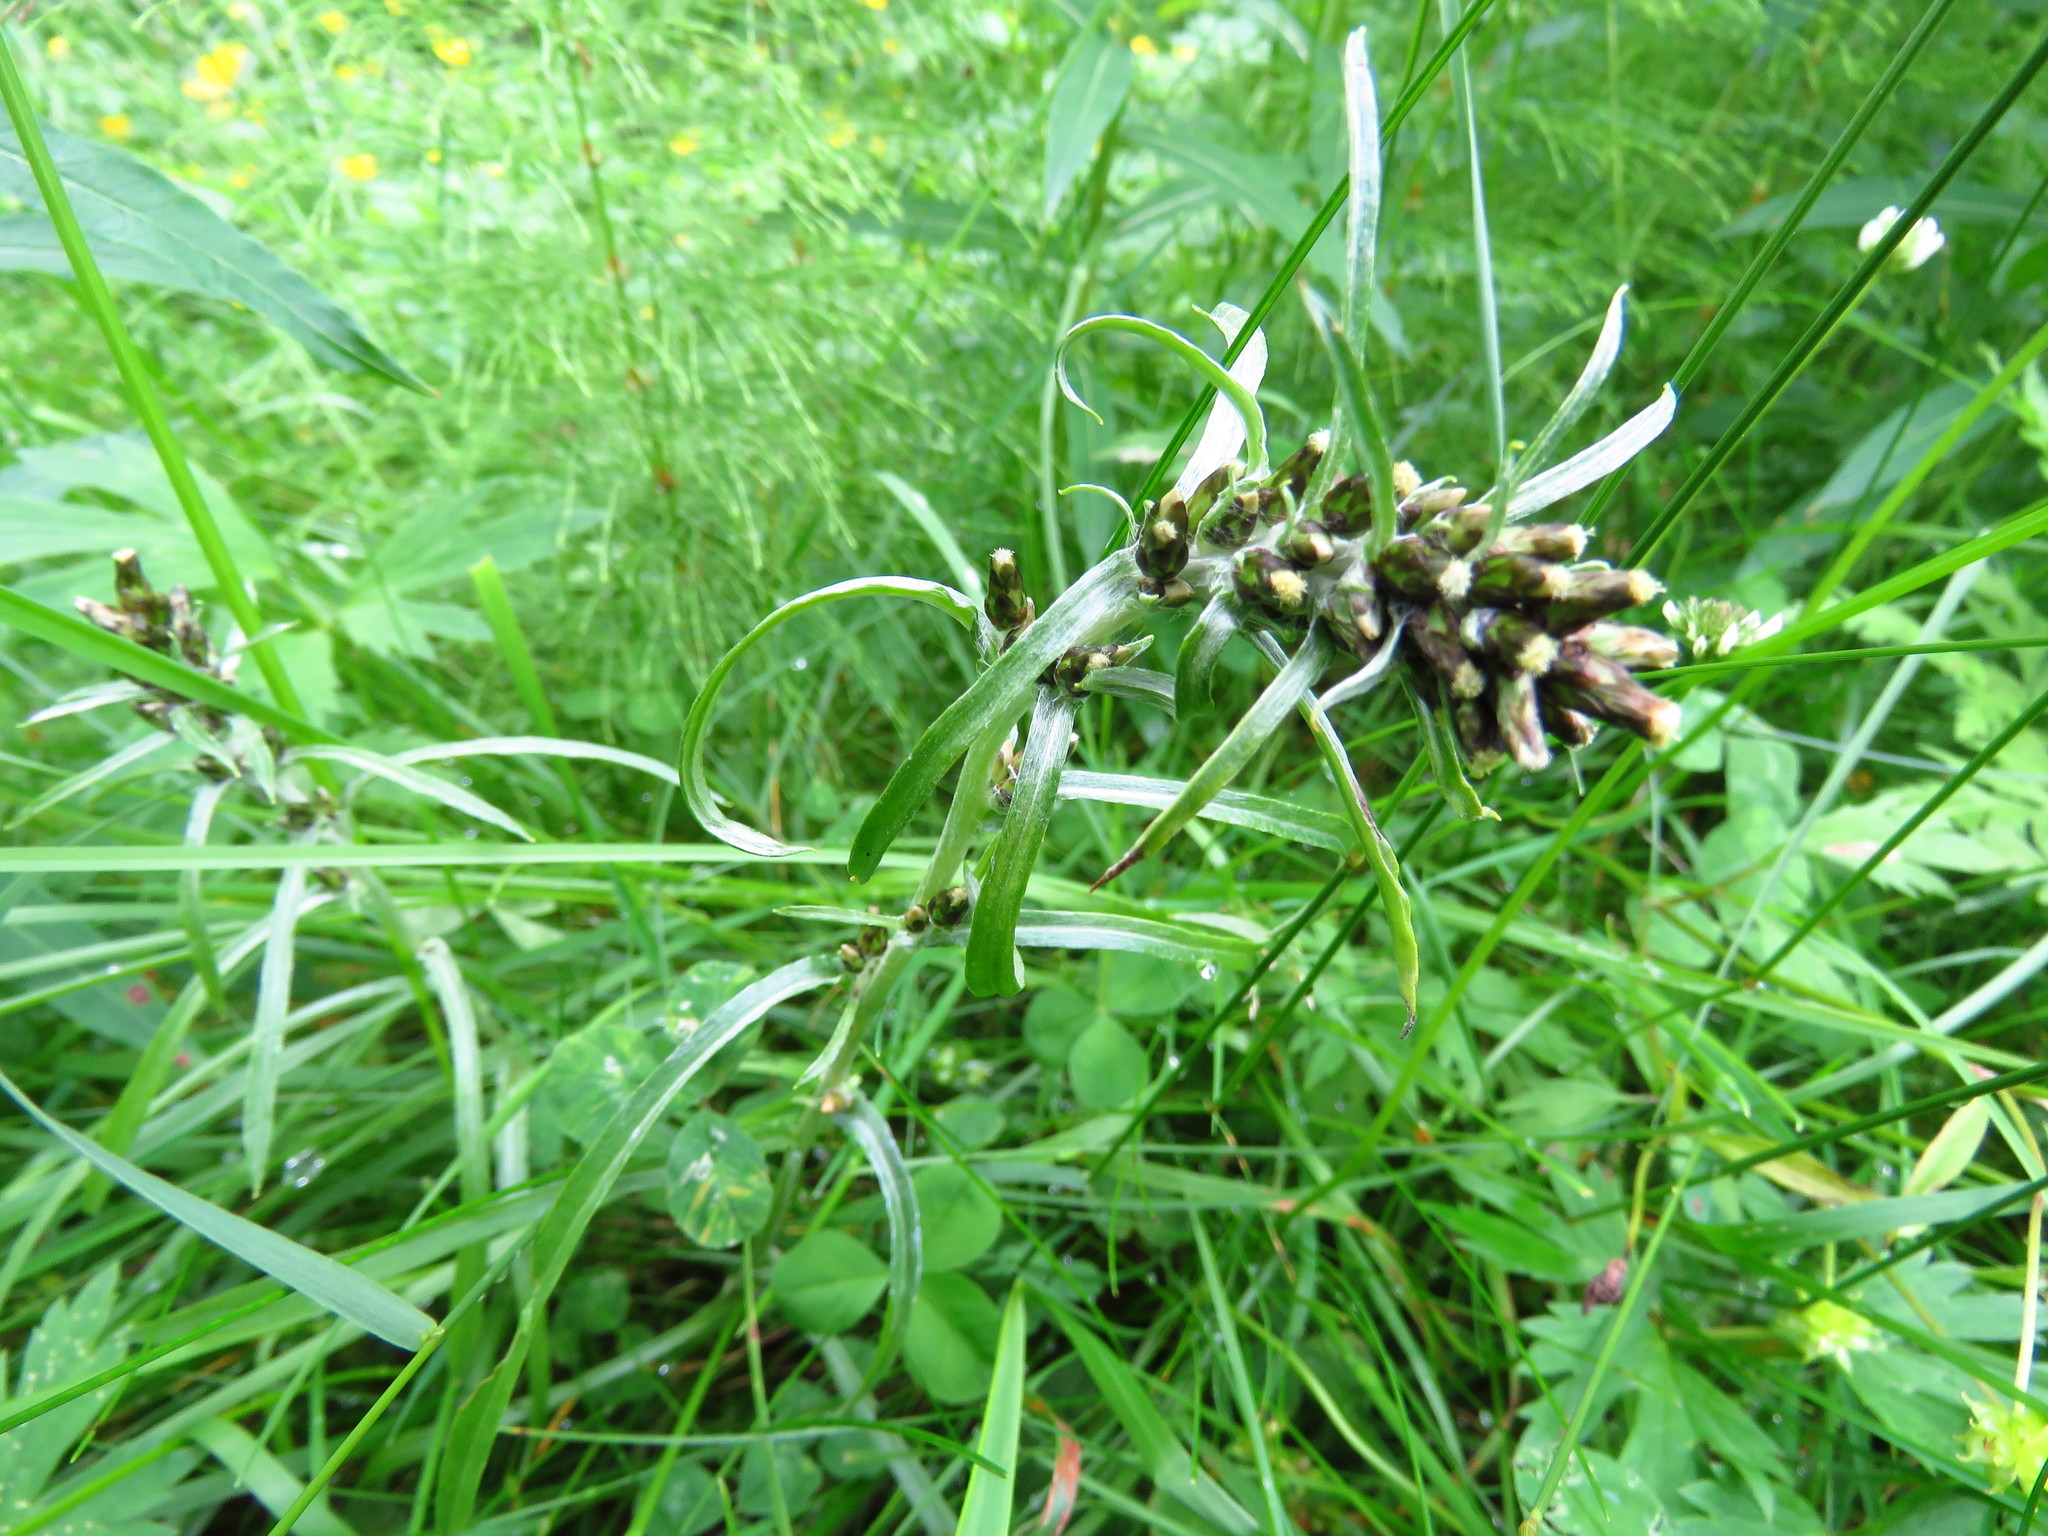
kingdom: Plantae
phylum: Tracheophyta
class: Magnoliopsida
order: Asterales
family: Asteraceae
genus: Omalotheca
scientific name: Omalotheca norvegica
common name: Norwegian arctic-cudweed
